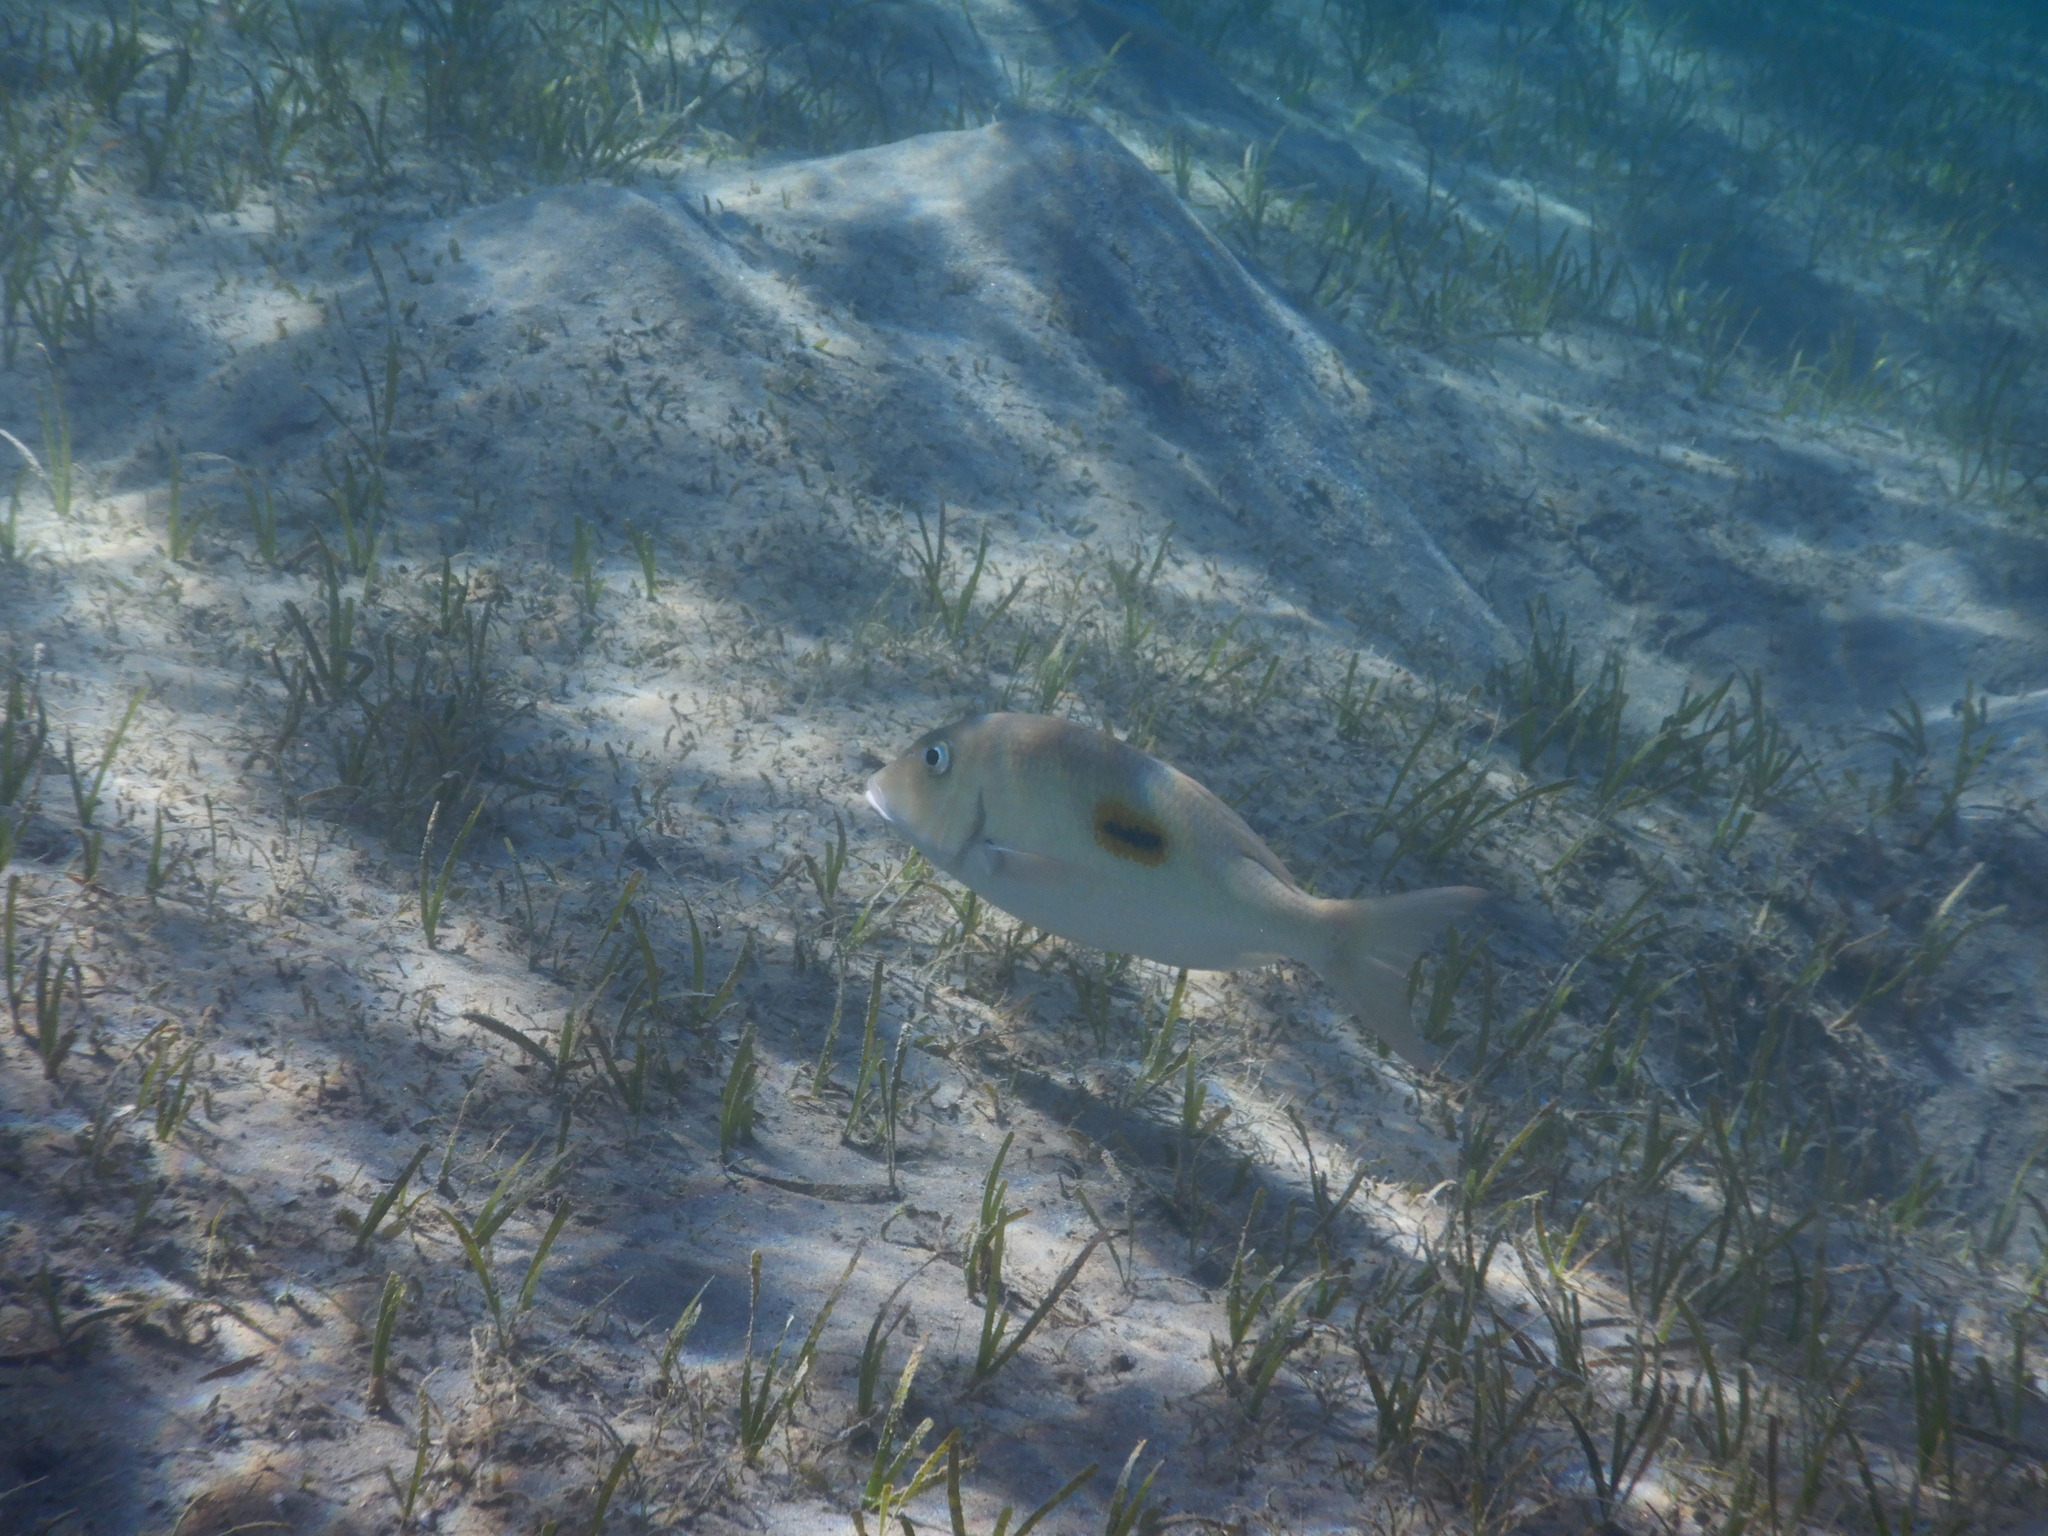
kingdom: Animalia
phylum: Chordata
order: Perciformes
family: Lethrinidae
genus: Lethrinus
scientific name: Lethrinus harak
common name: Blackspot emperor
